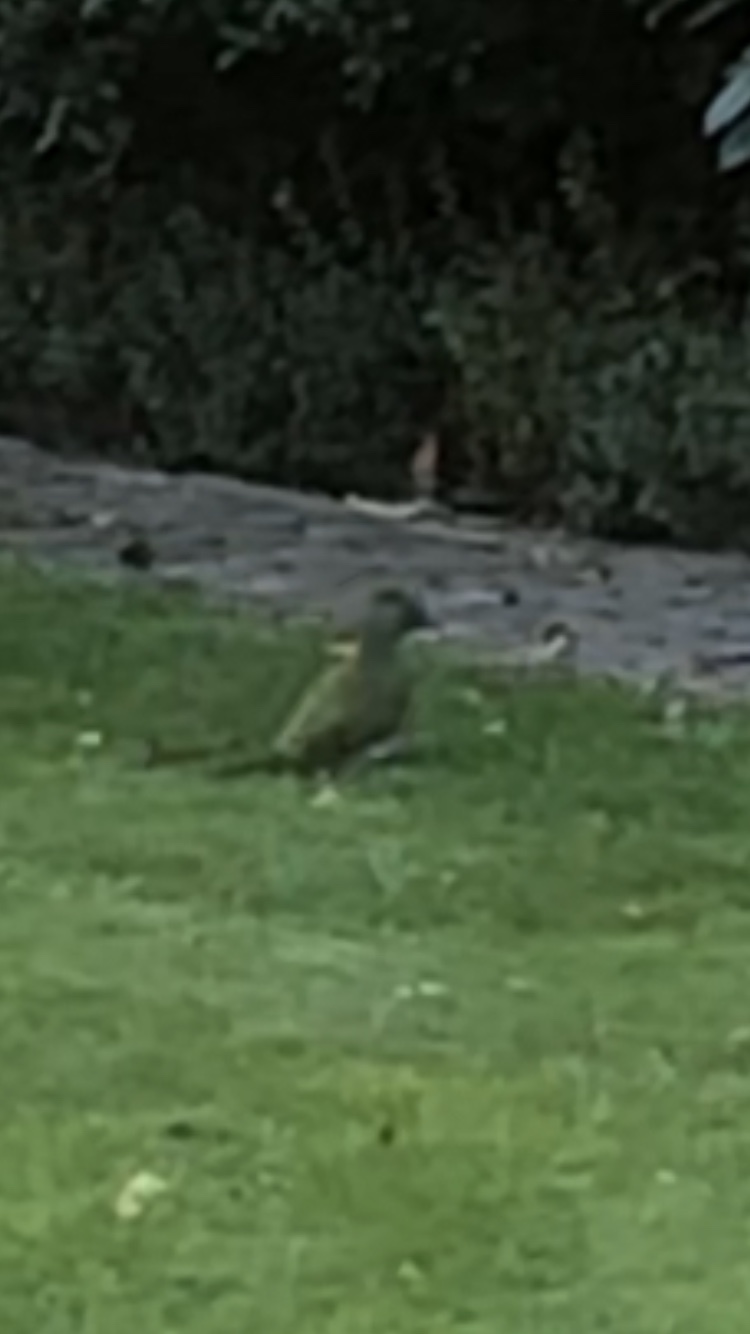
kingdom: Animalia
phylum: Chordata
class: Aves
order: Piciformes
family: Picidae
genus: Picus
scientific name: Picus viridis
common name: European green woodpecker
